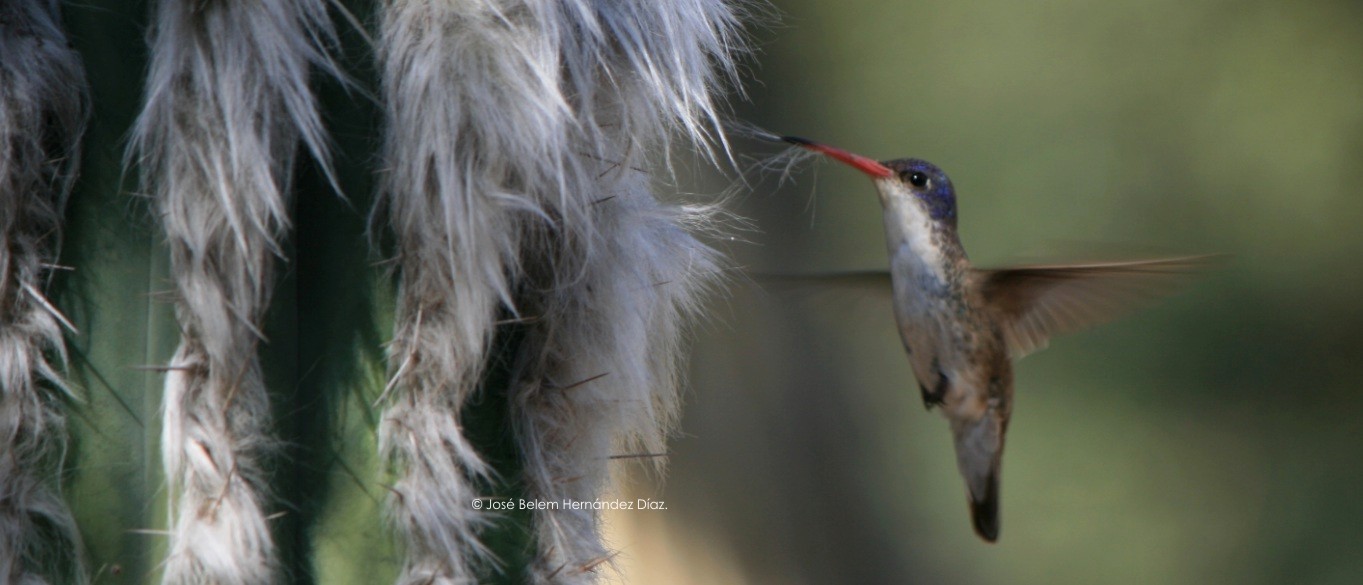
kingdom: Animalia
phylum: Chordata
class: Aves
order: Apodiformes
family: Trochilidae
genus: Leucolia
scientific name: Leucolia violiceps
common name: Violet-crowned hummingbird
